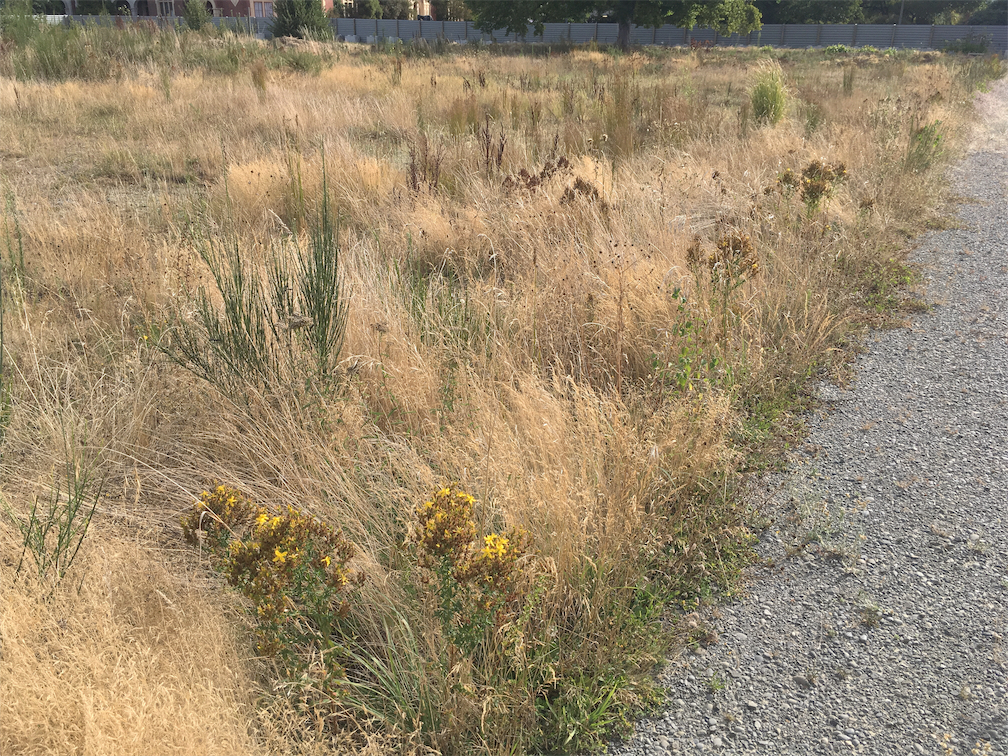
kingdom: Plantae
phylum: Tracheophyta
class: Magnoliopsida
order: Malpighiales
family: Hypericaceae
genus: Hypericum
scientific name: Hypericum perforatum
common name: Common st. johnswort
